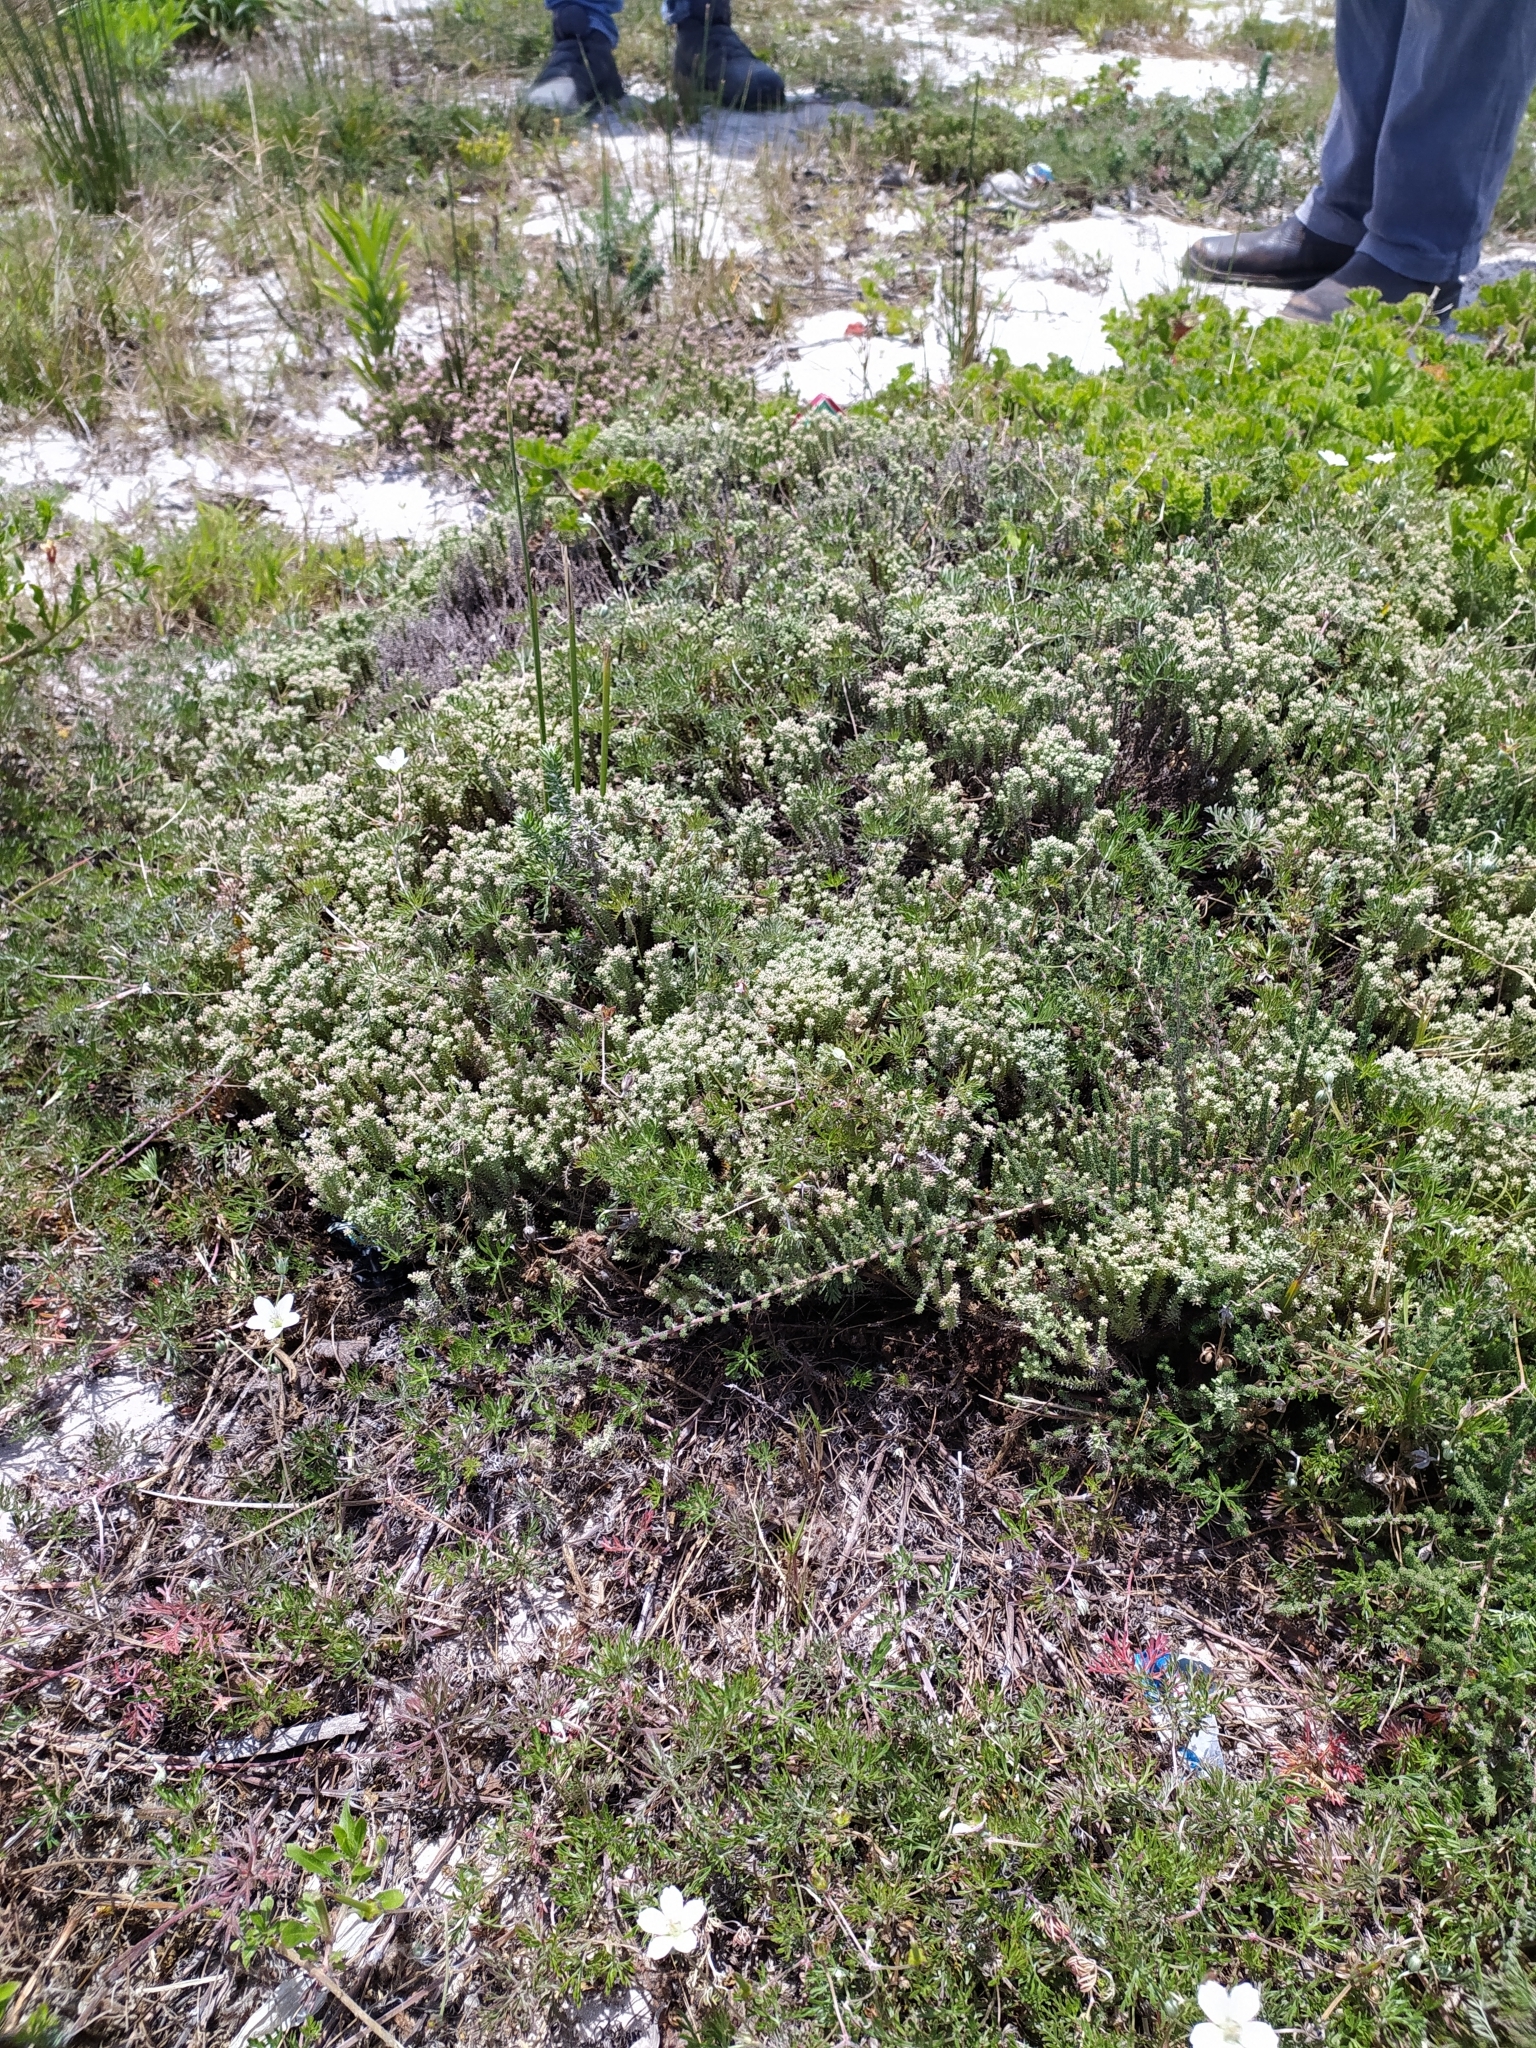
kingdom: Plantae
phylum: Tracheophyta
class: Magnoliopsida
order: Asterales
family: Asteraceae
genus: Helichrysum
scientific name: Helichrysum niveum
